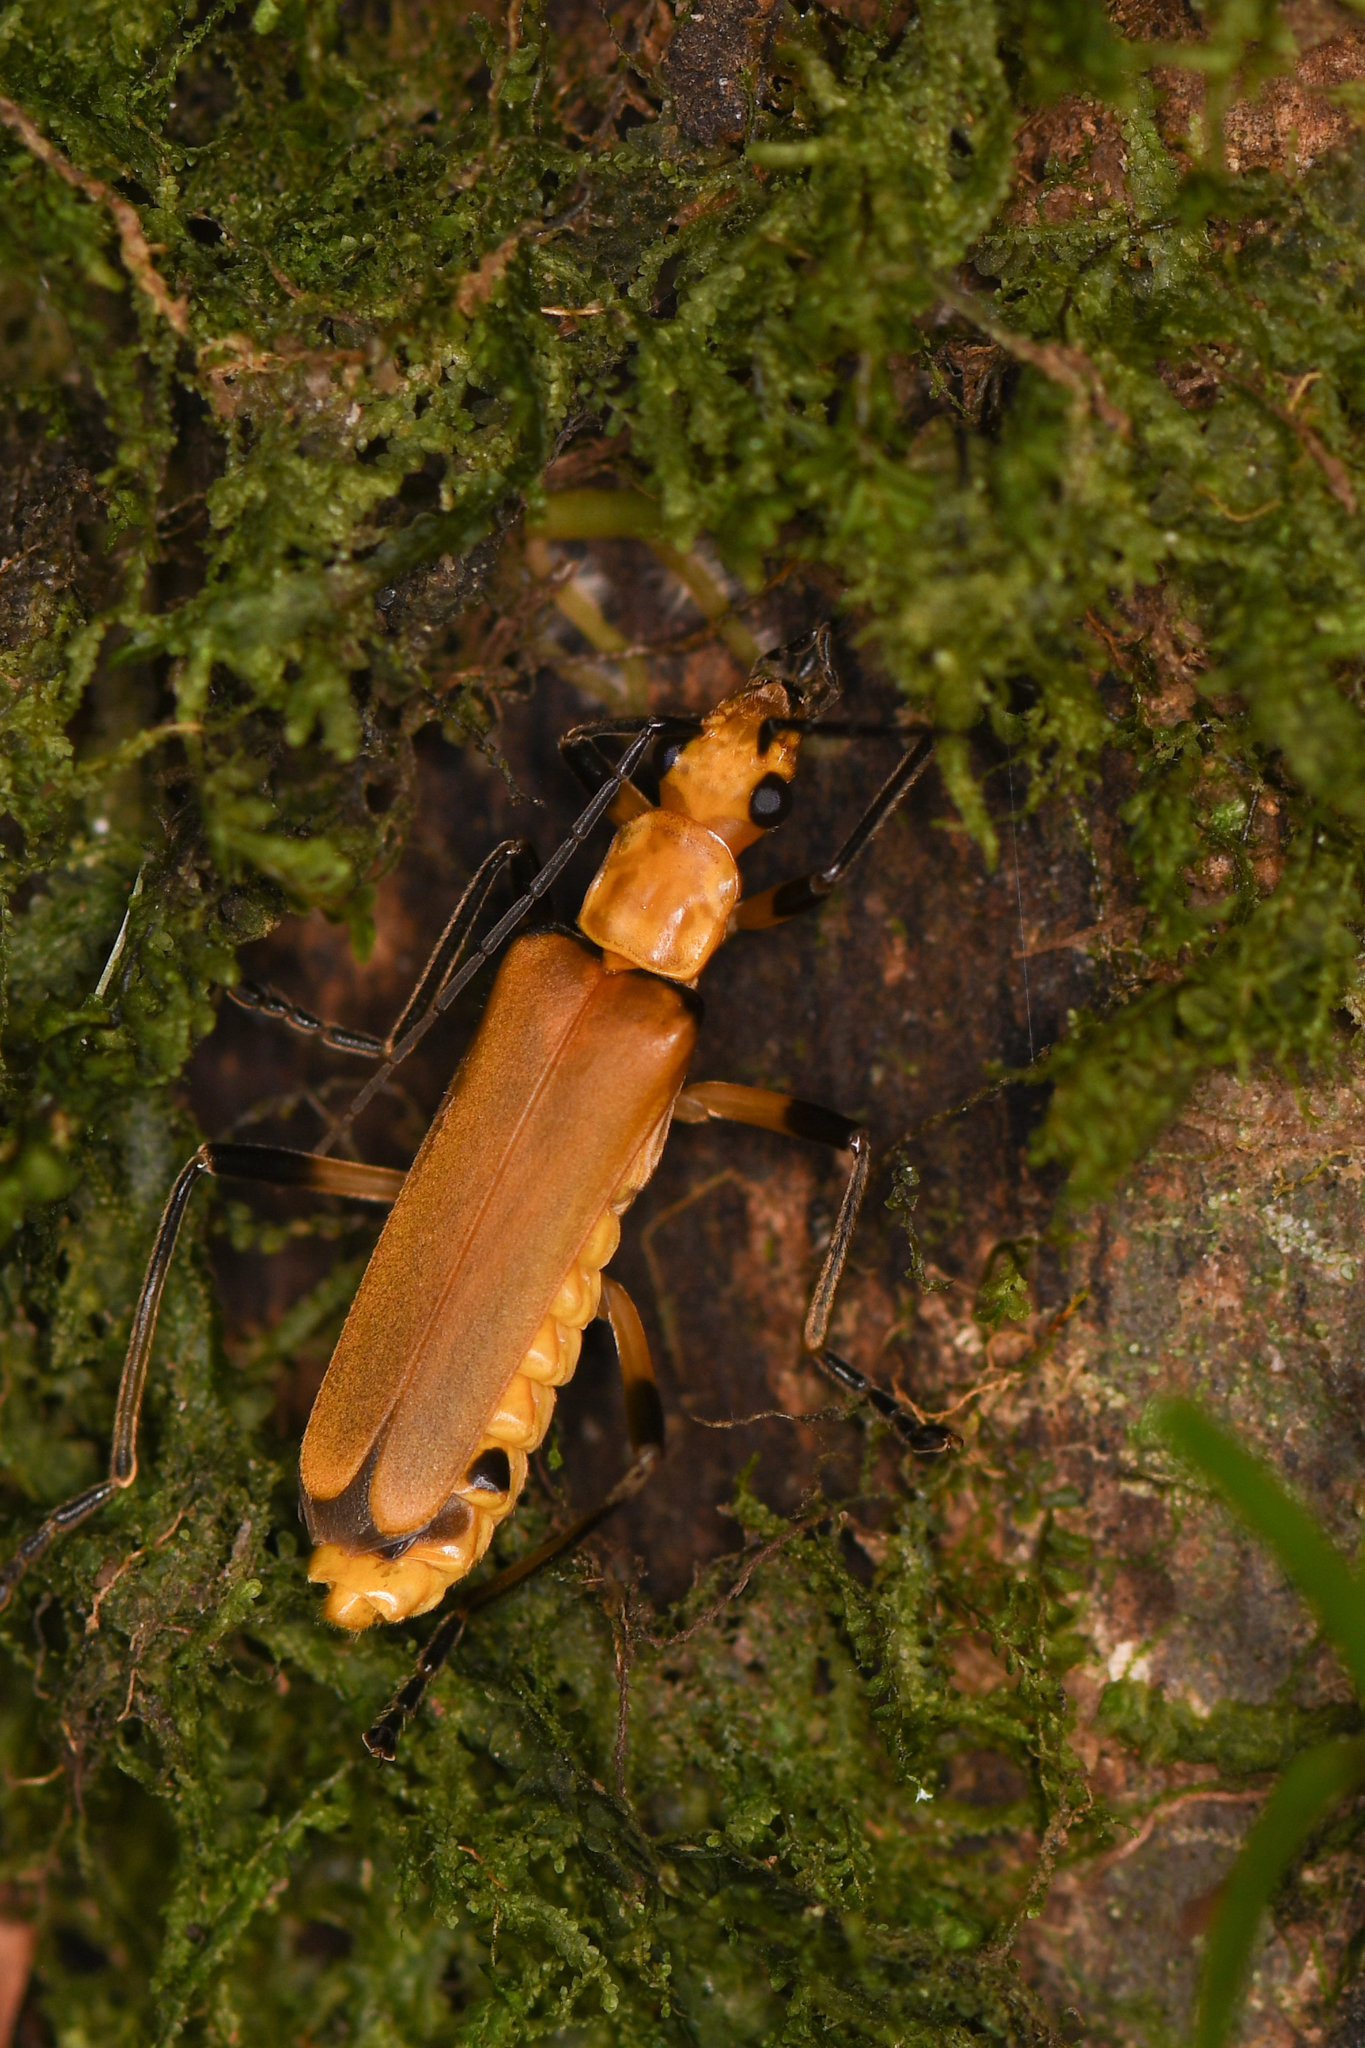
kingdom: Animalia
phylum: Arthropoda
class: Insecta
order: Coleoptera
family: Cantharidae
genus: Chauliognathus
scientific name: Chauliognathus
